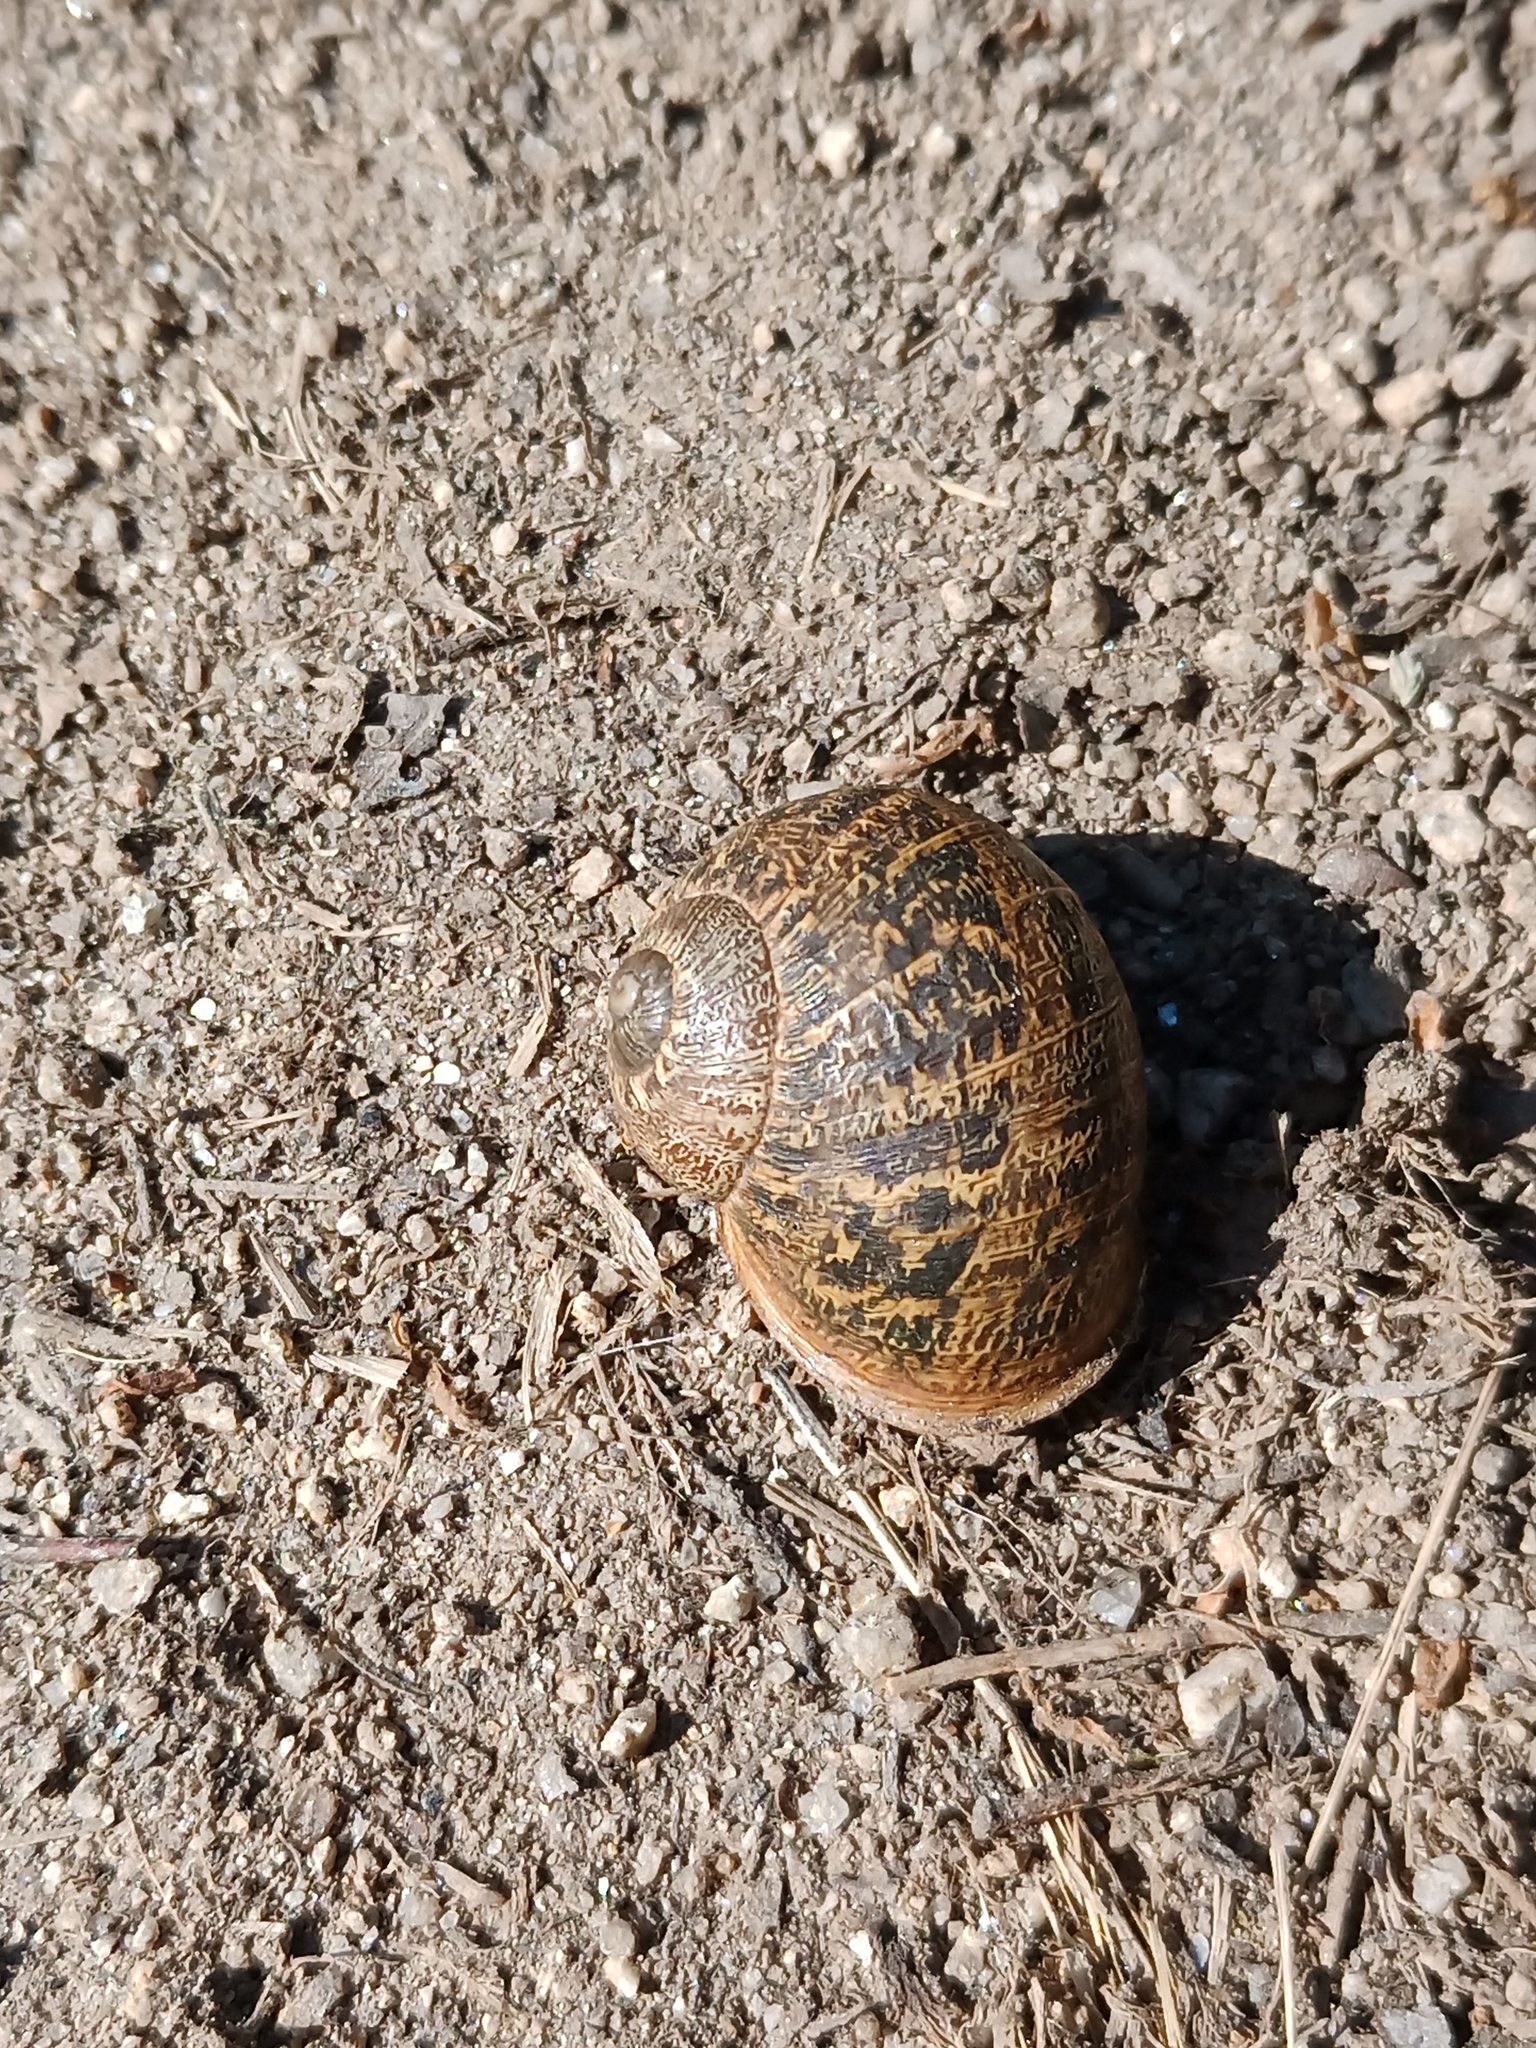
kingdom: Animalia
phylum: Mollusca
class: Gastropoda
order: Stylommatophora
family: Helicidae
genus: Cornu
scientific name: Cornu aspersum
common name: Brown garden snail
